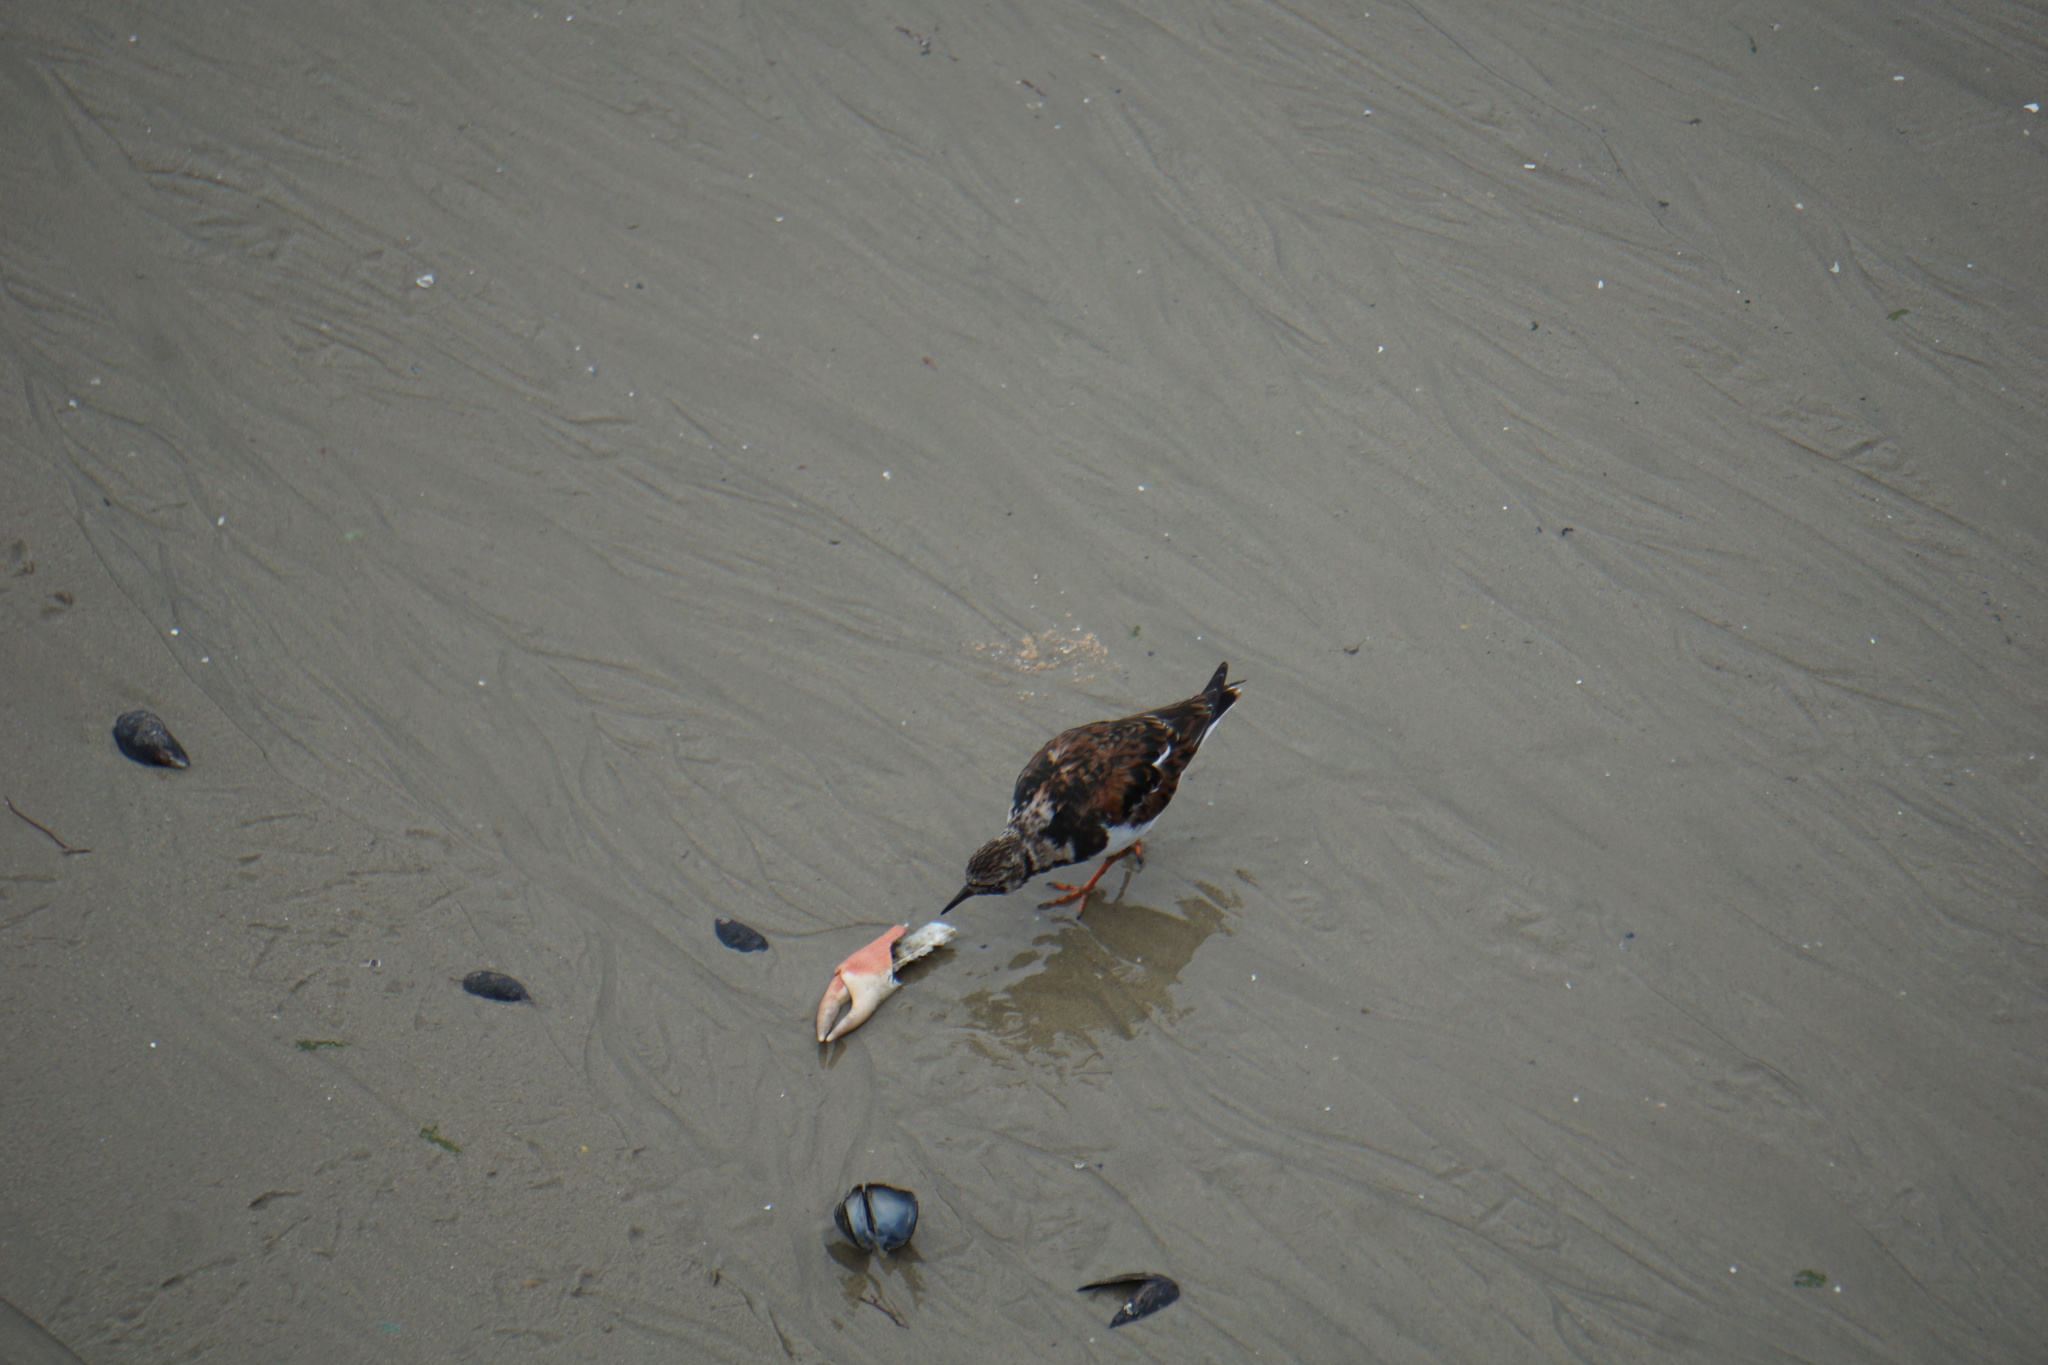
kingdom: Animalia
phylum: Chordata
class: Aves
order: Charadriiformes
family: Scolopacidae
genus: Arenaria
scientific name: Arenaria interpres
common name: Ruddy turnstone
